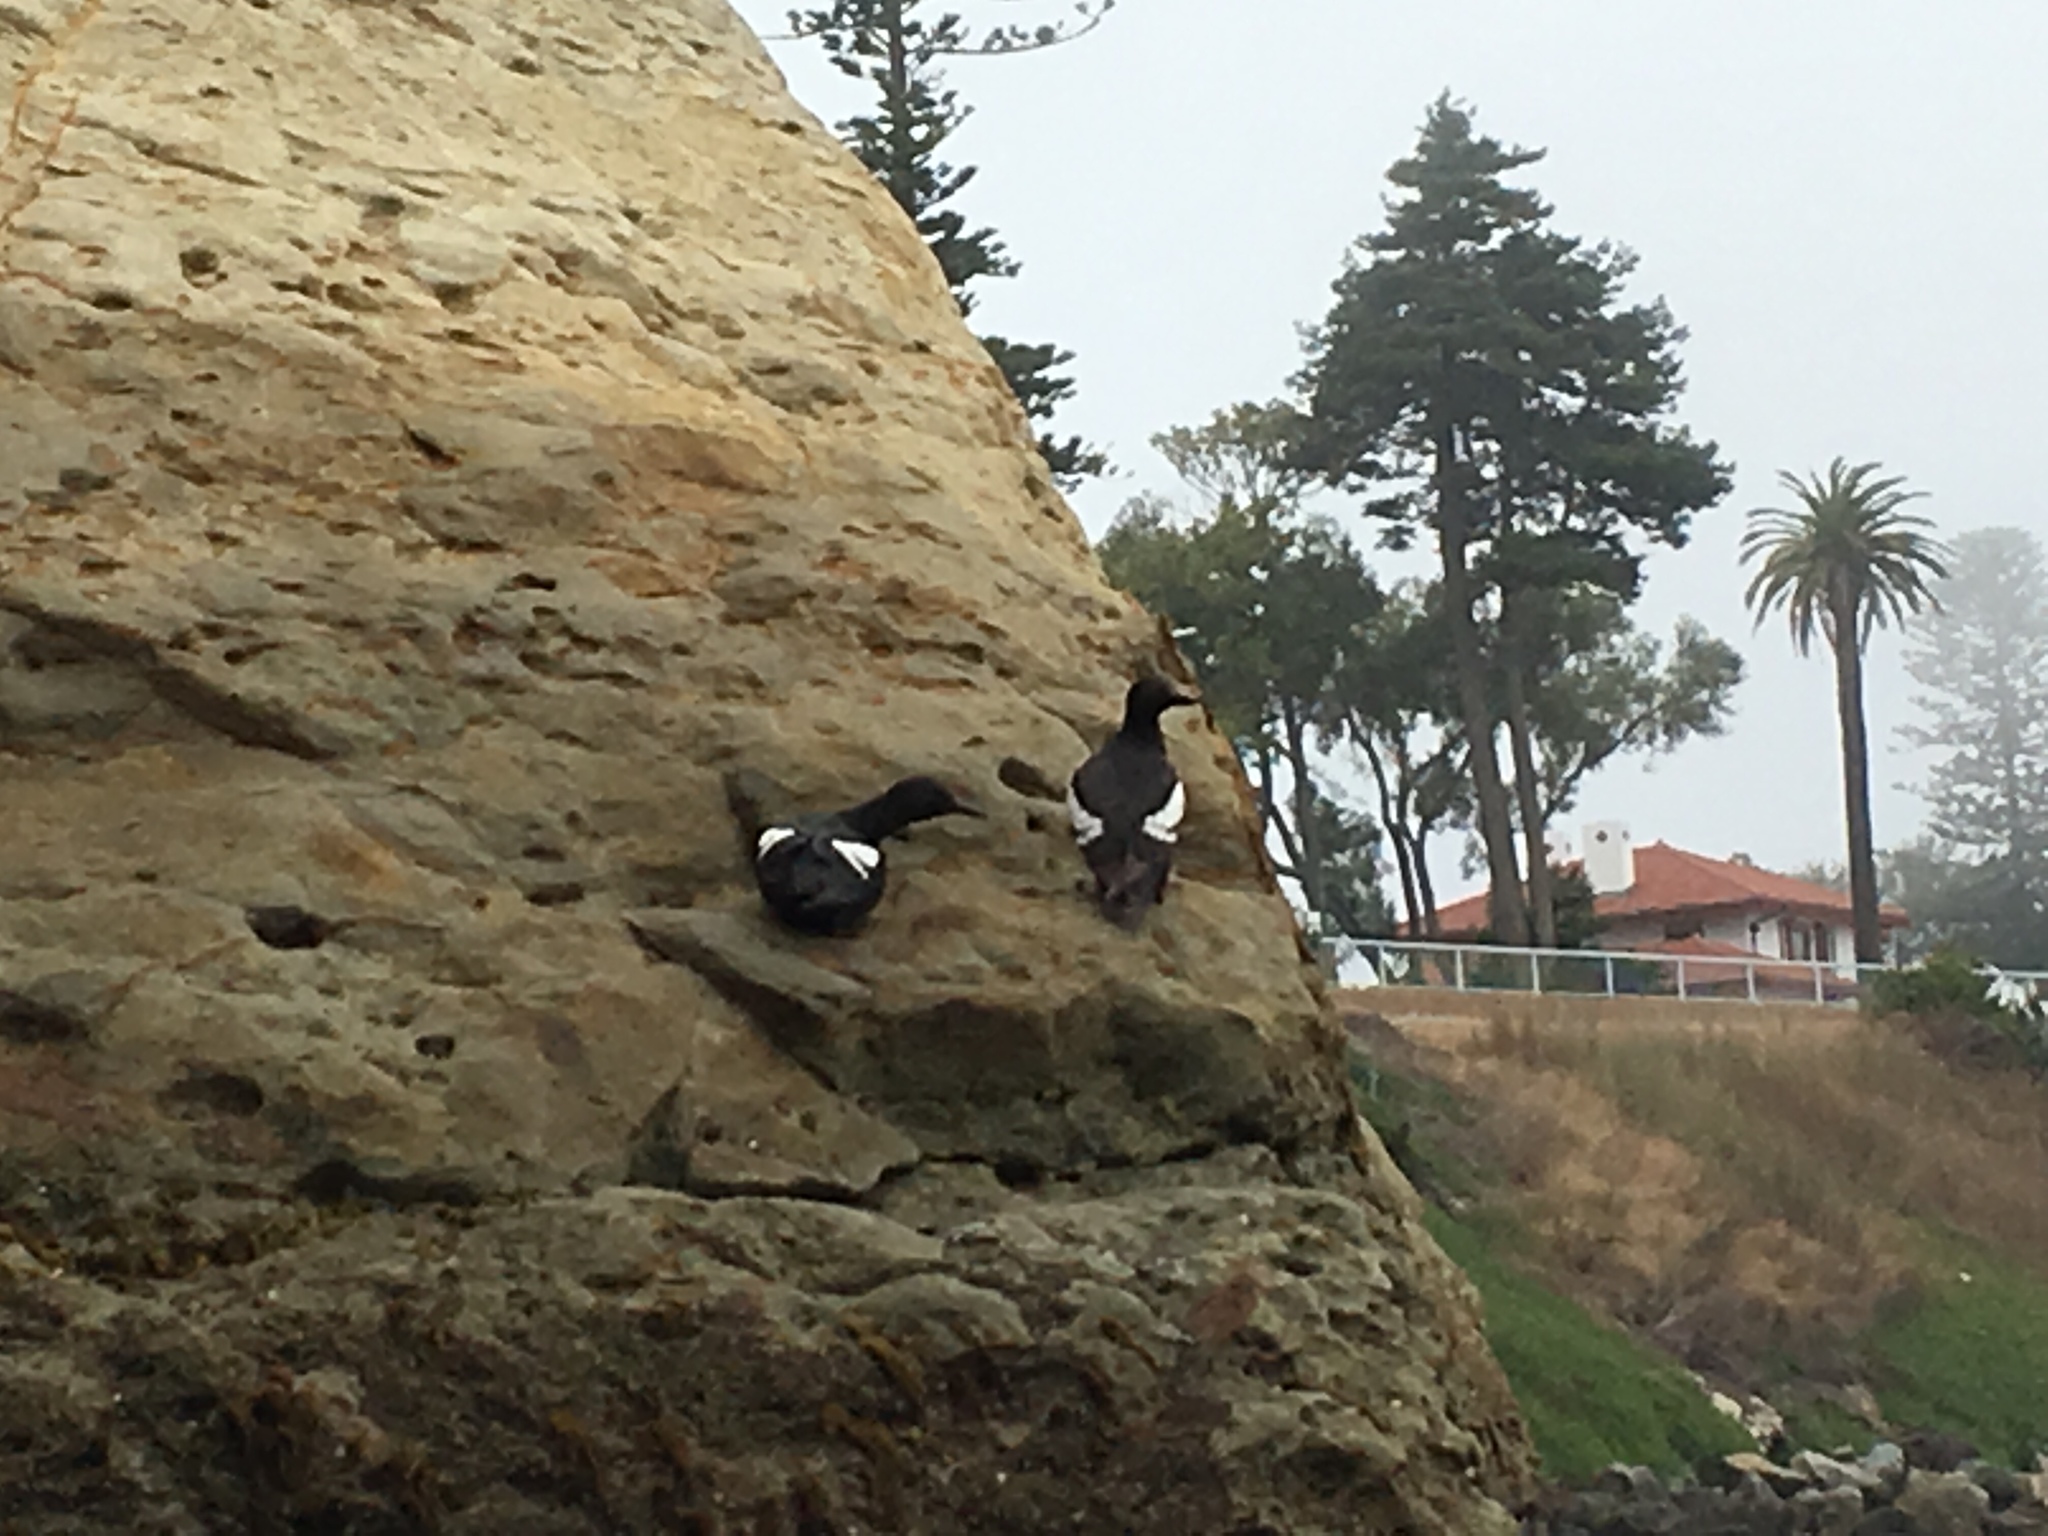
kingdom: Animalia
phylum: Chordata
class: Aves
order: Charadriiformes
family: Alcidae
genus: Cepphus
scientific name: Cepphus columba
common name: Pigeon guillemot
